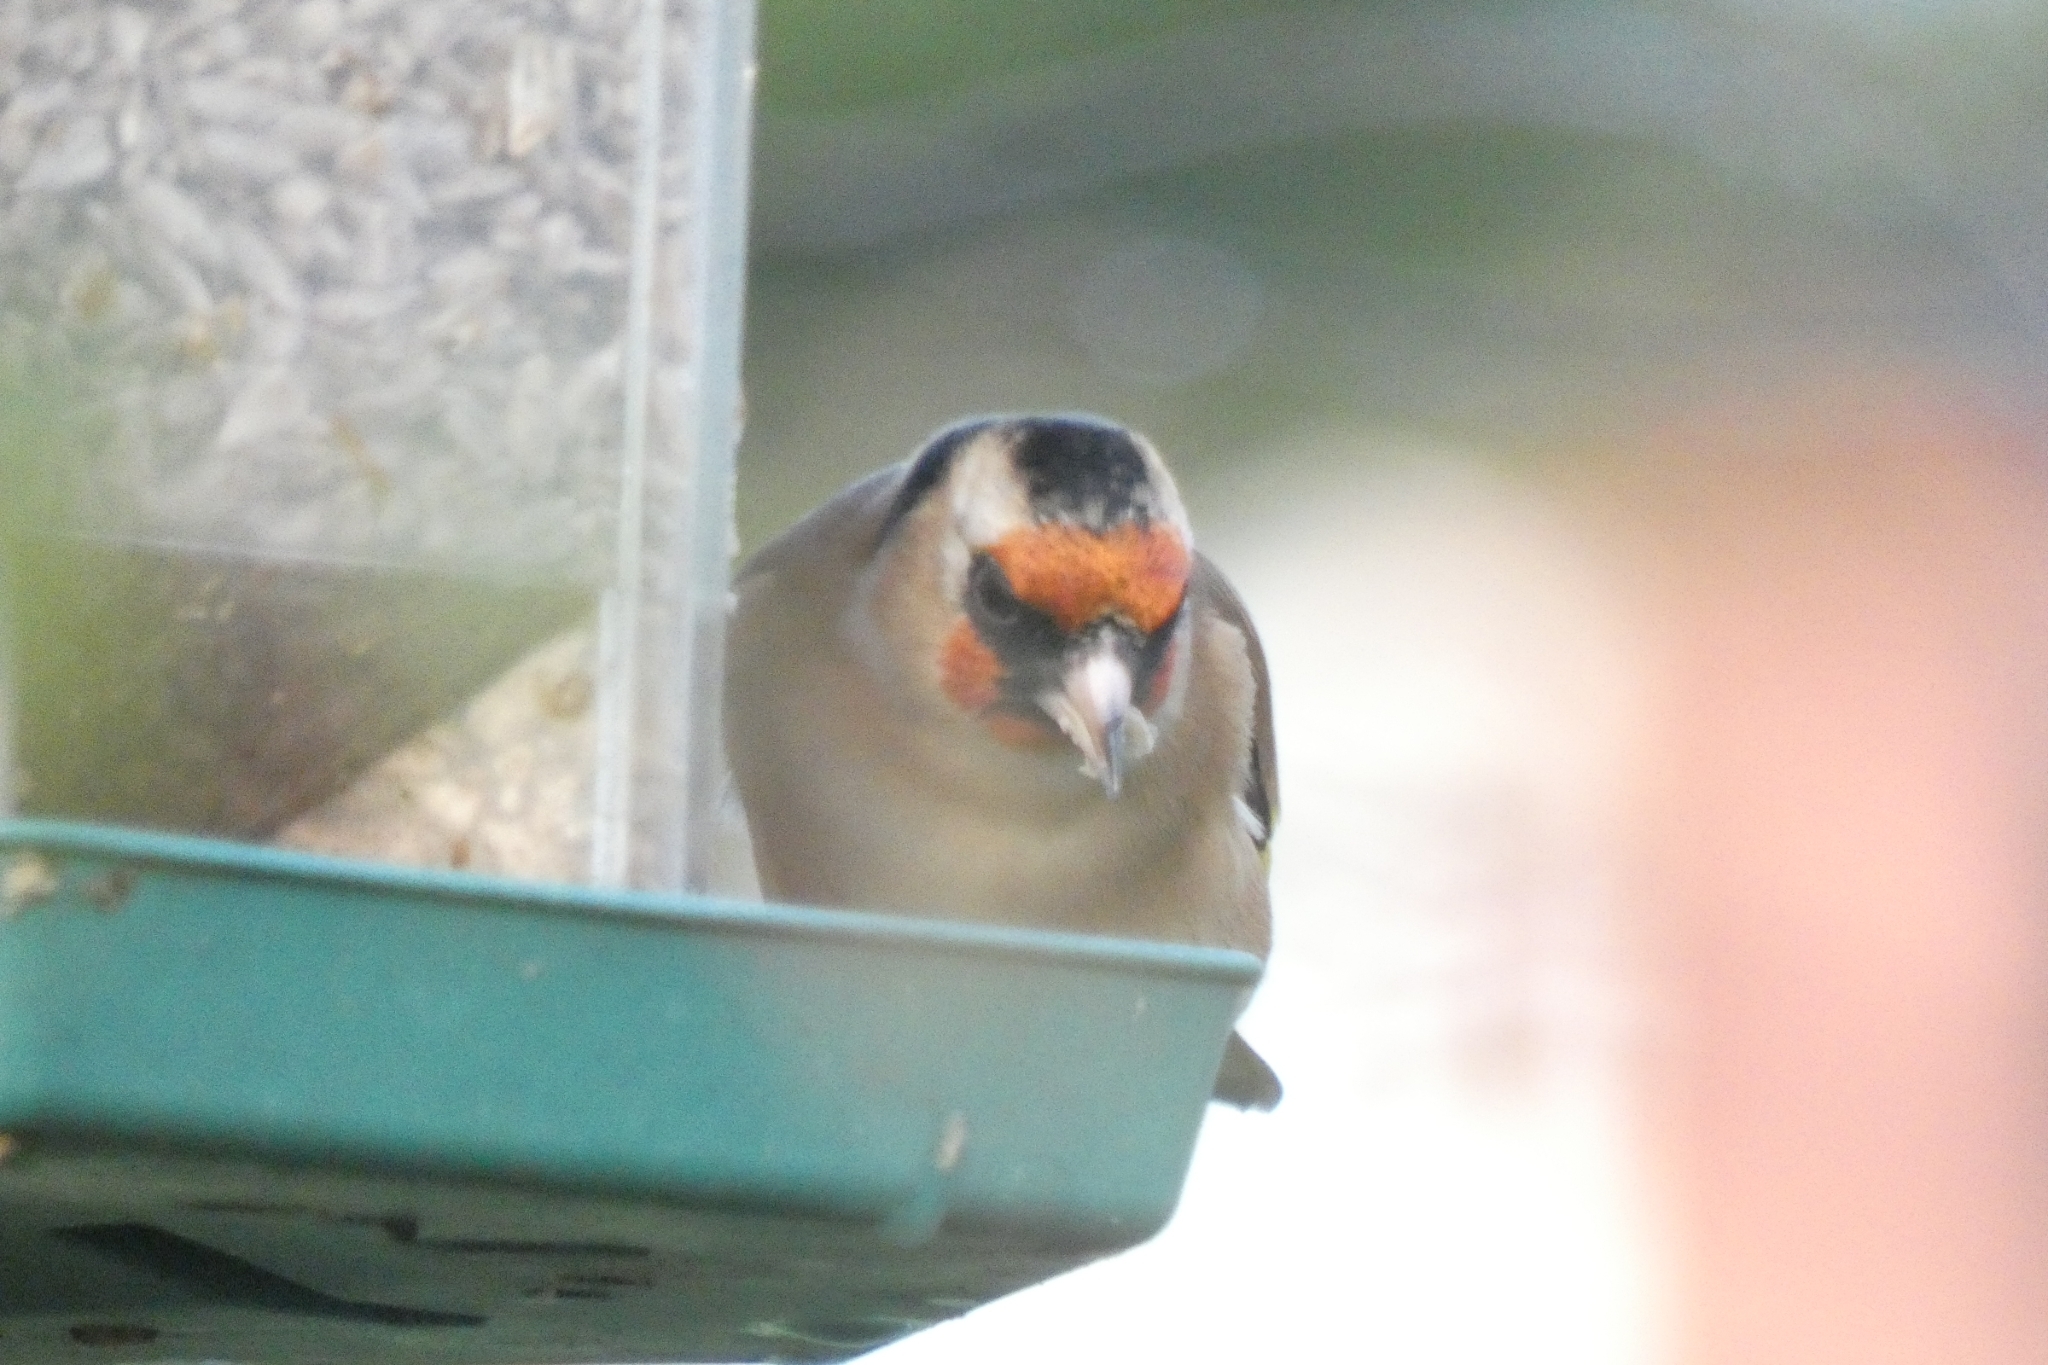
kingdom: Animalia
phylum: Chordata
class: Aves
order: Passeriformes
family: Fringillidae
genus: Carduelis
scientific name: Carduelis carduelis
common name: European goldfinch
